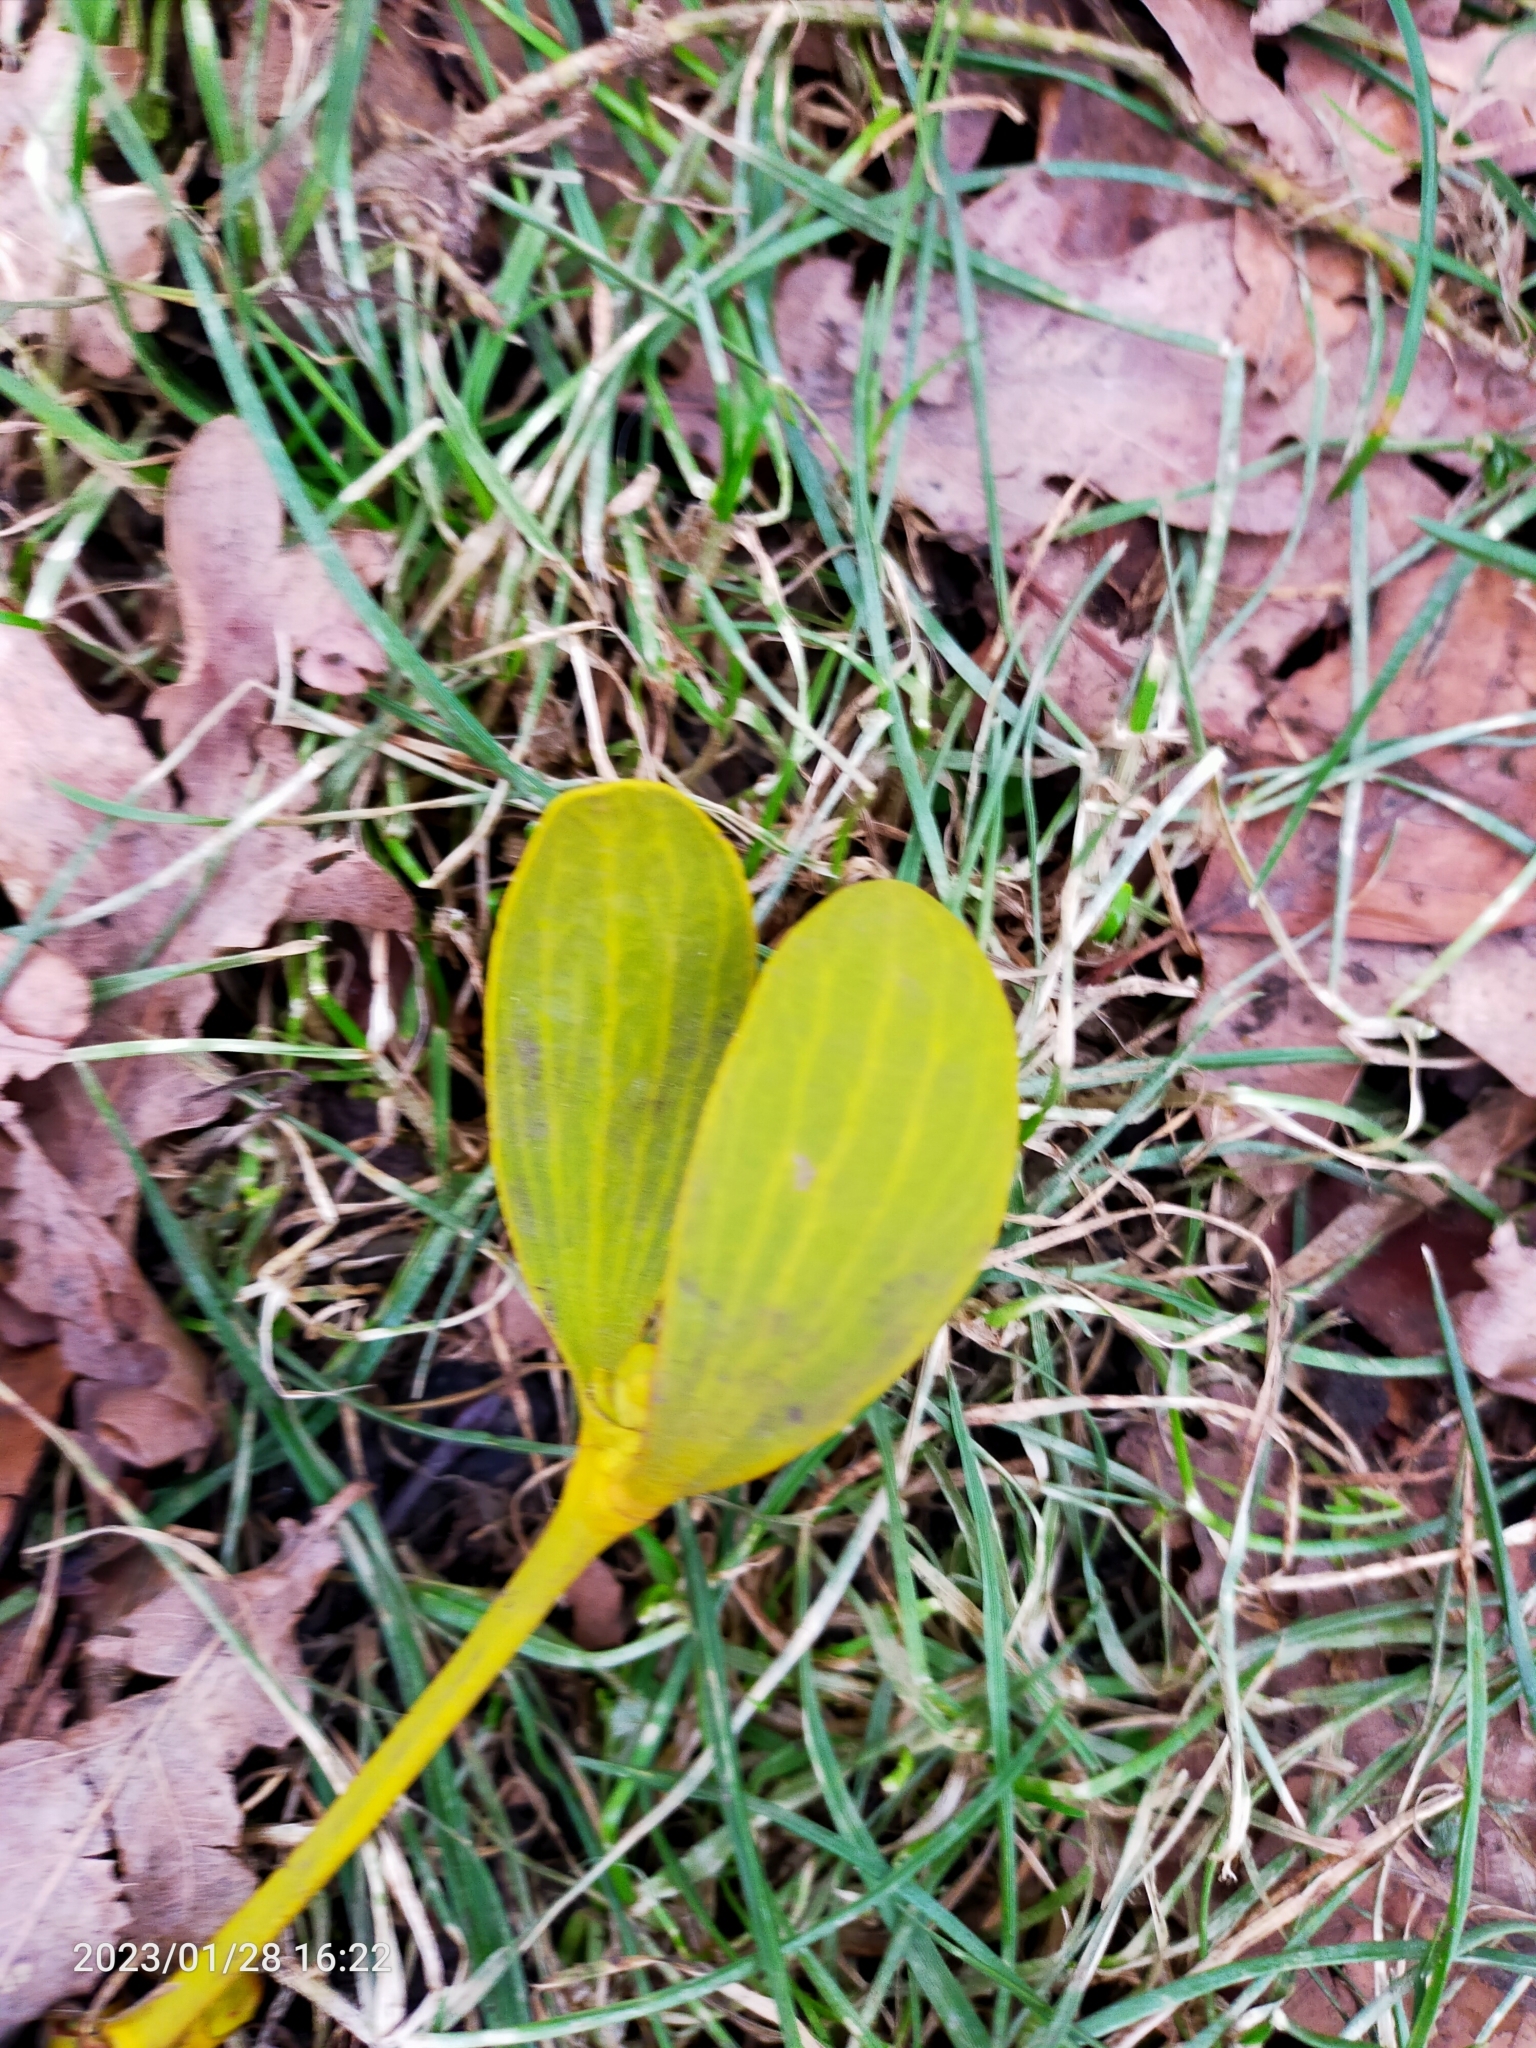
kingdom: Plantae
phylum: Tracheophyta
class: Magnoliopsida
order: Santalales
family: Viscaceae
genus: Viscum
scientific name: Viscum album
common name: Mistletoe
